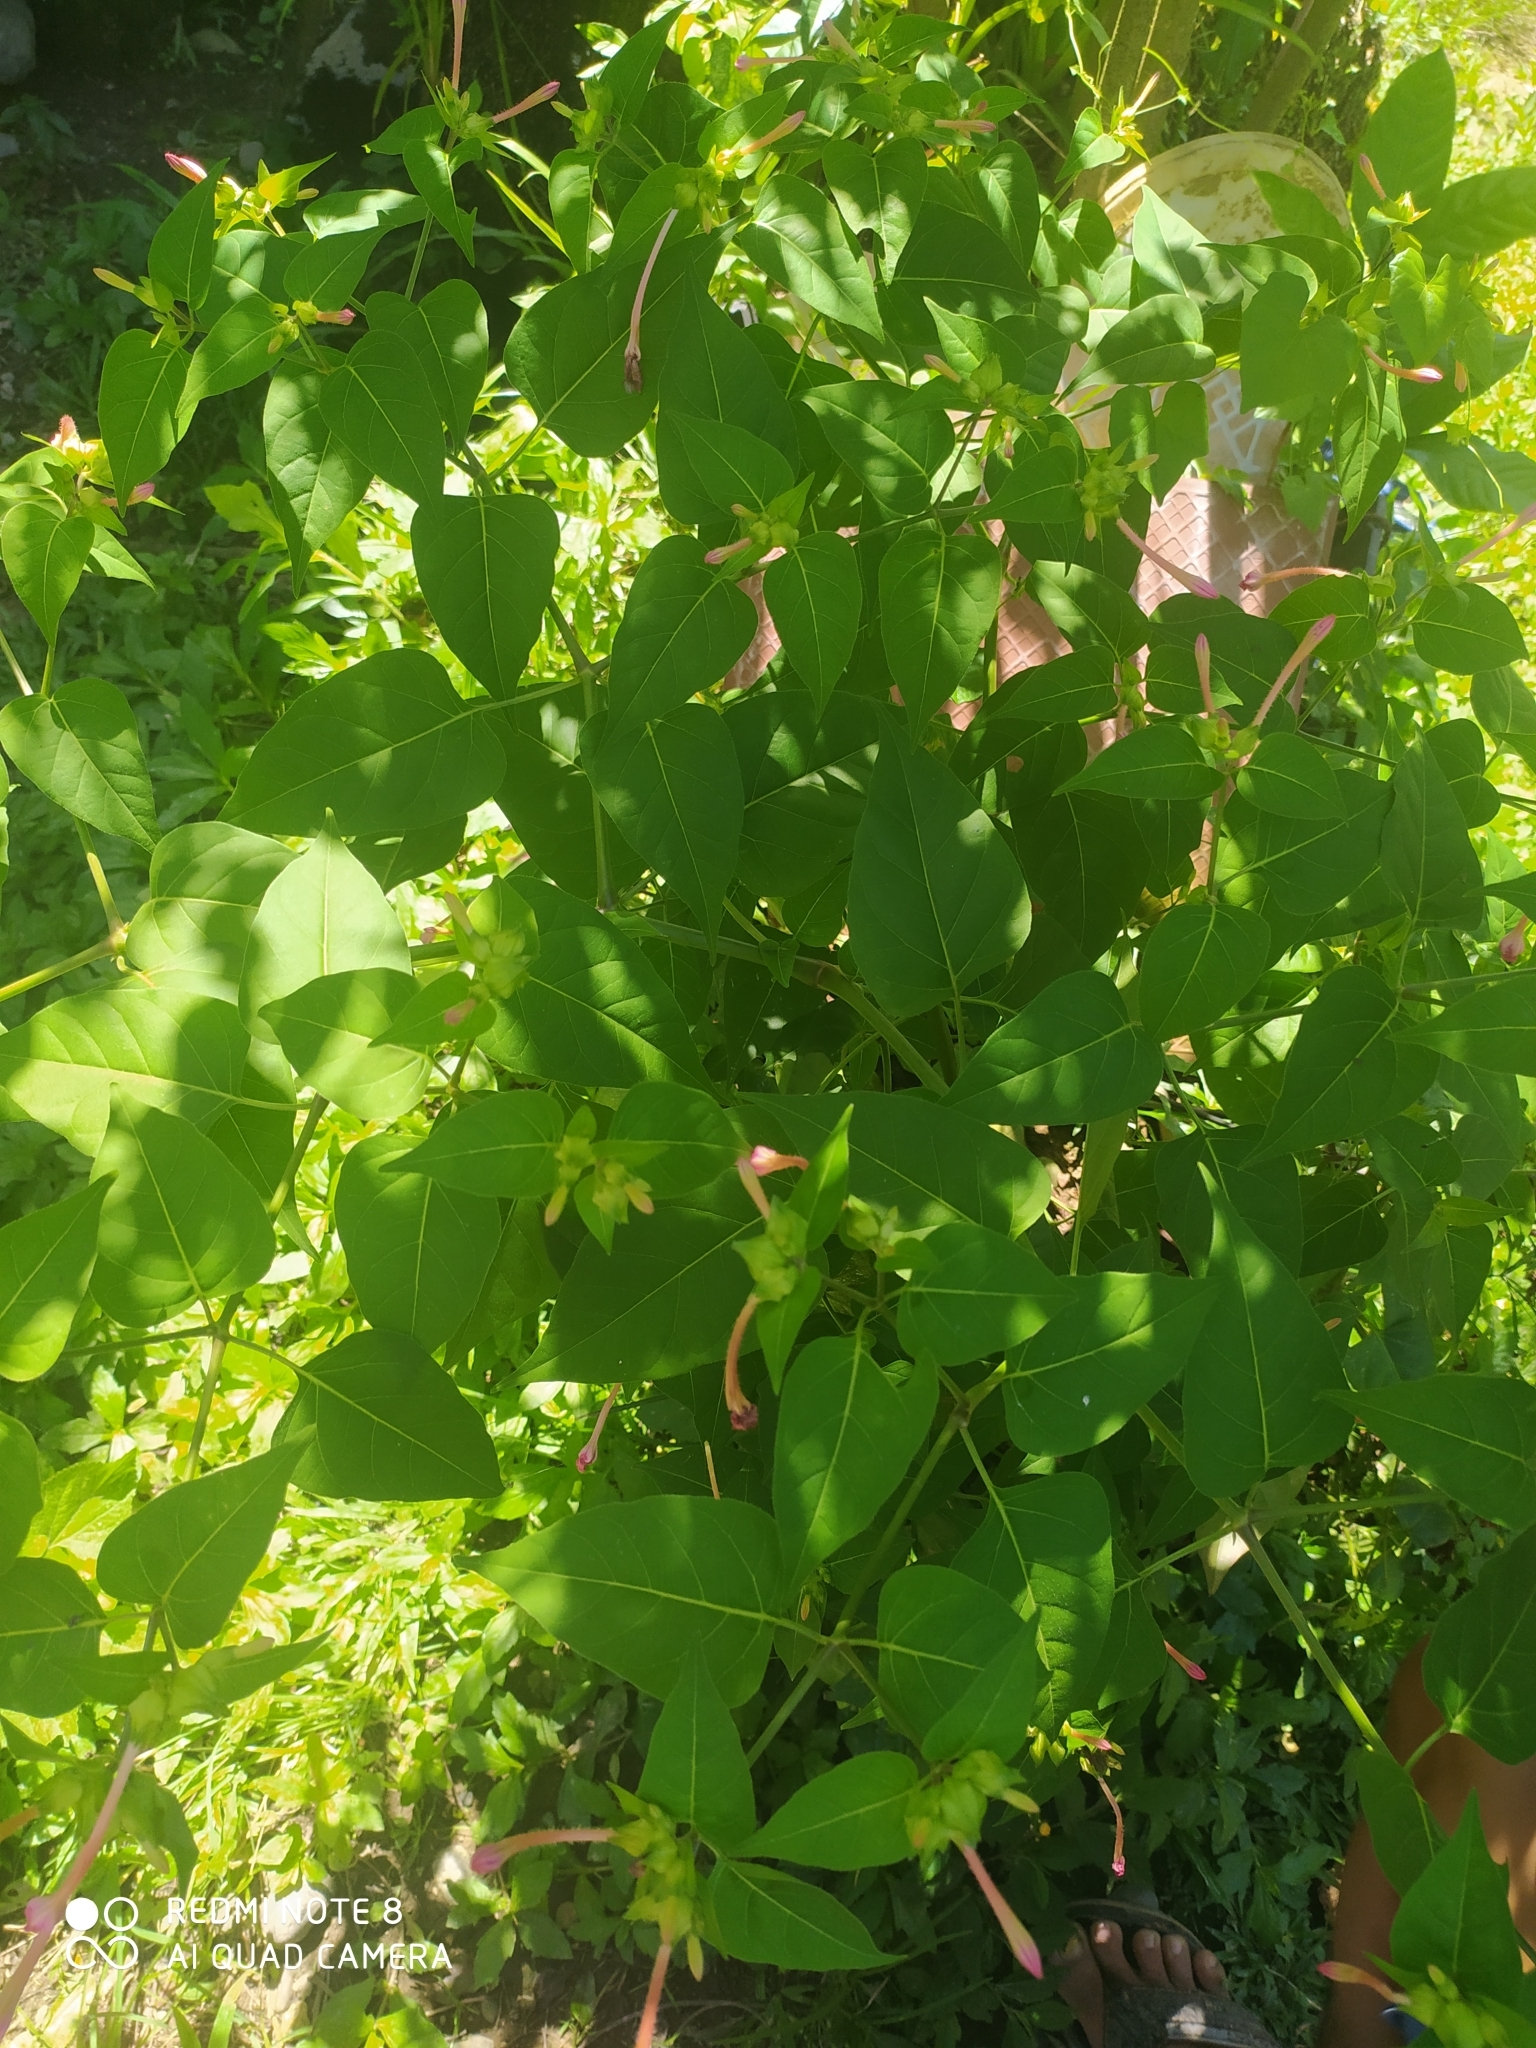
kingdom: Plantae
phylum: Tracheophyta
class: Magnoliopsida
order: Caryophyllales
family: Nyctaginaceae
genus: Mirabilis
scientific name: Mirabilis jalapa
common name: Marvel-of-peru
